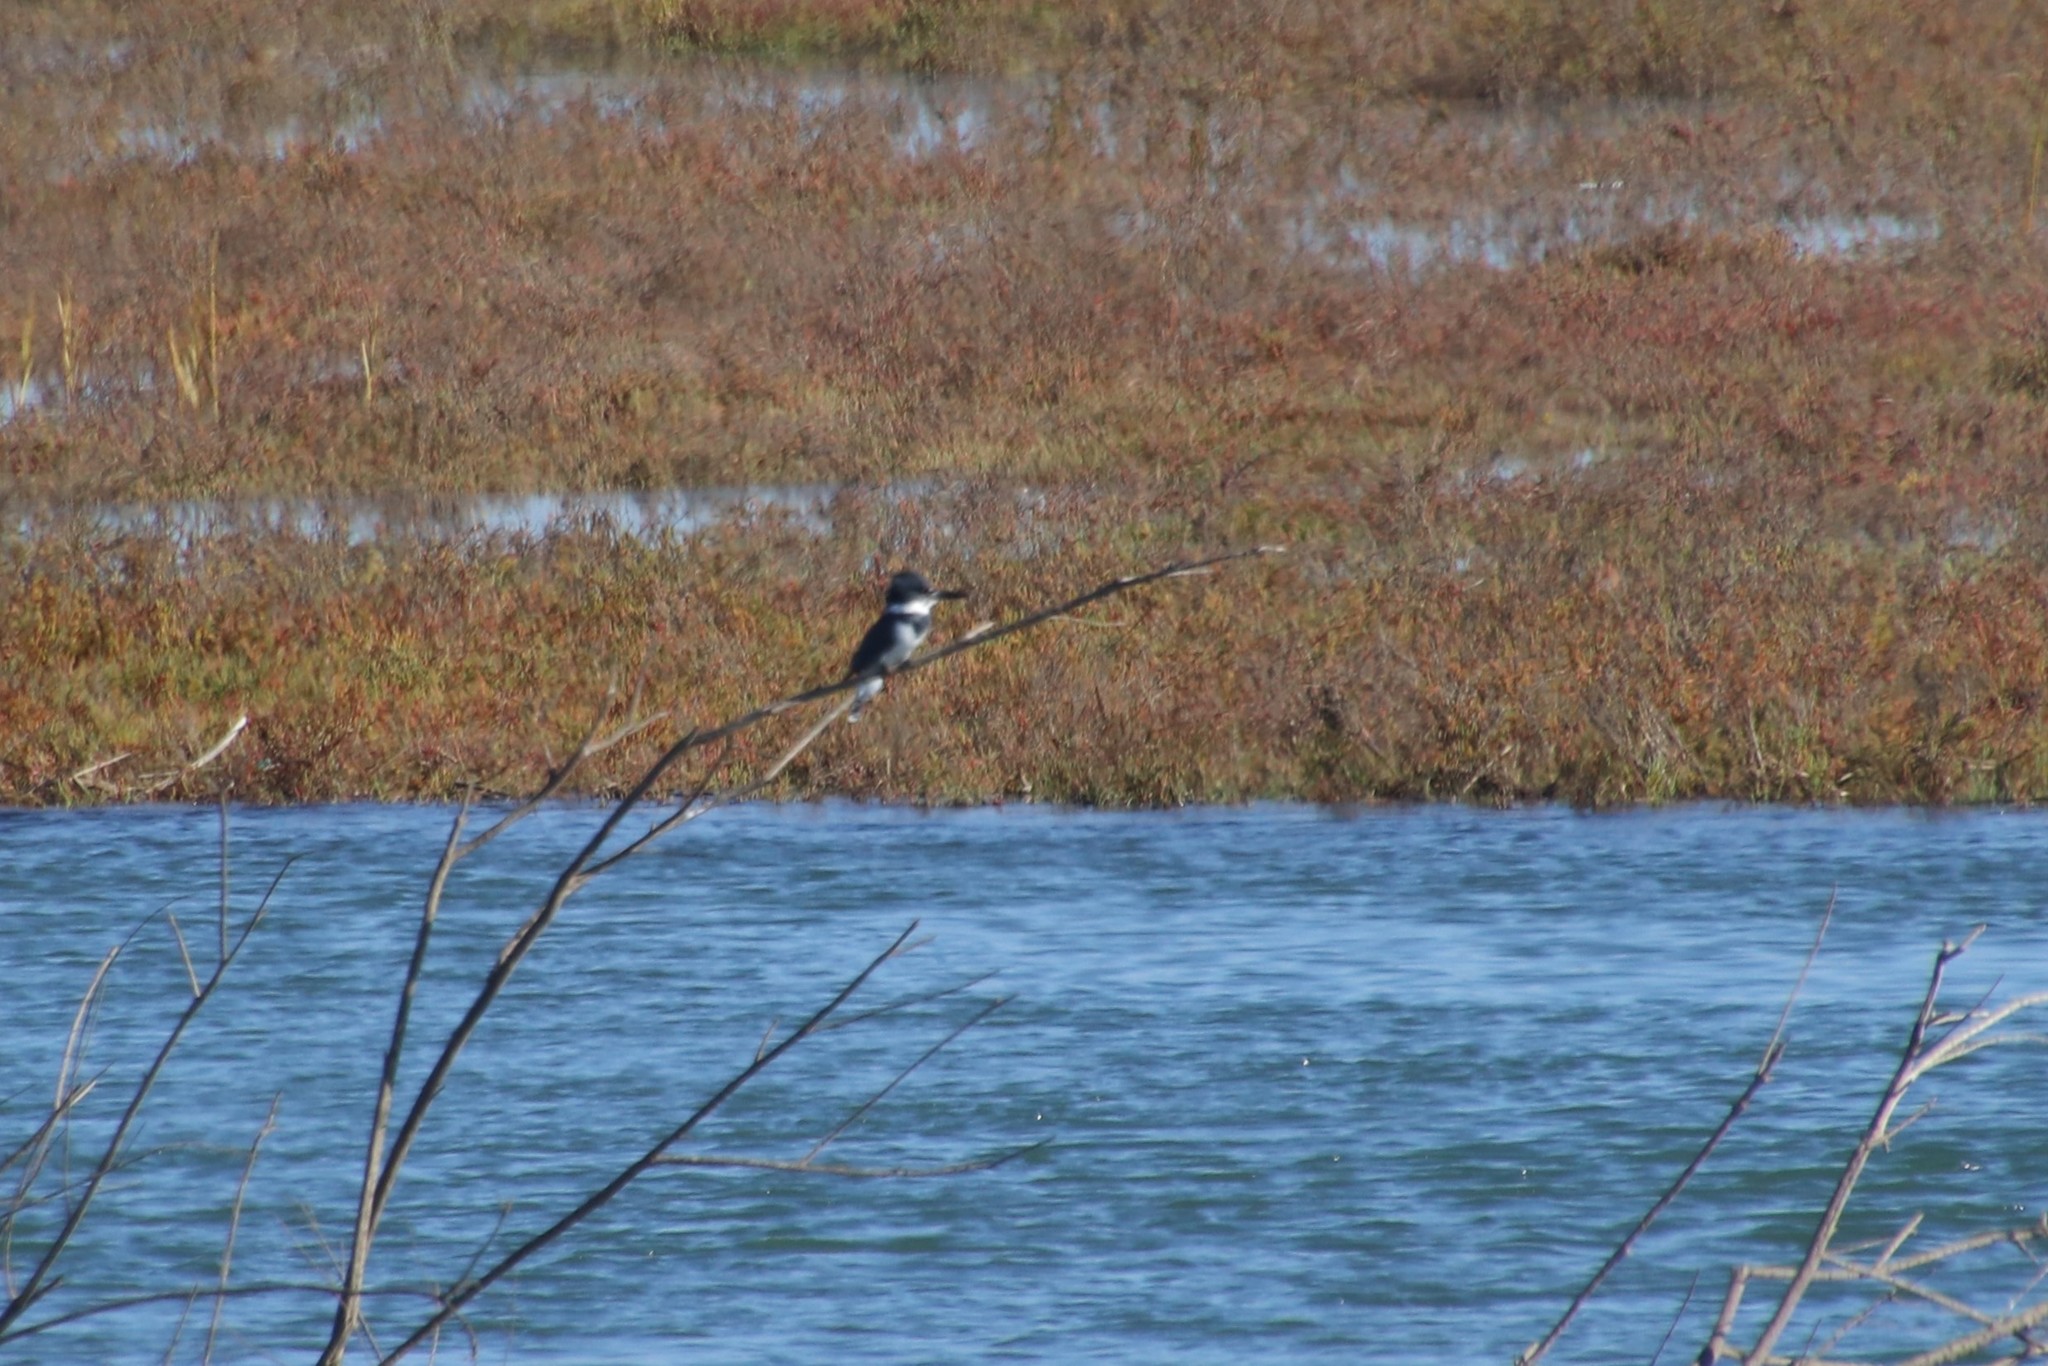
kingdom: Animalia
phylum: Chordata
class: Aves
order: Coraciiformes
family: Alcedinidae
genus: Megaceryle
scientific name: Megaceryle alcyon
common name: Belted kingfisher
